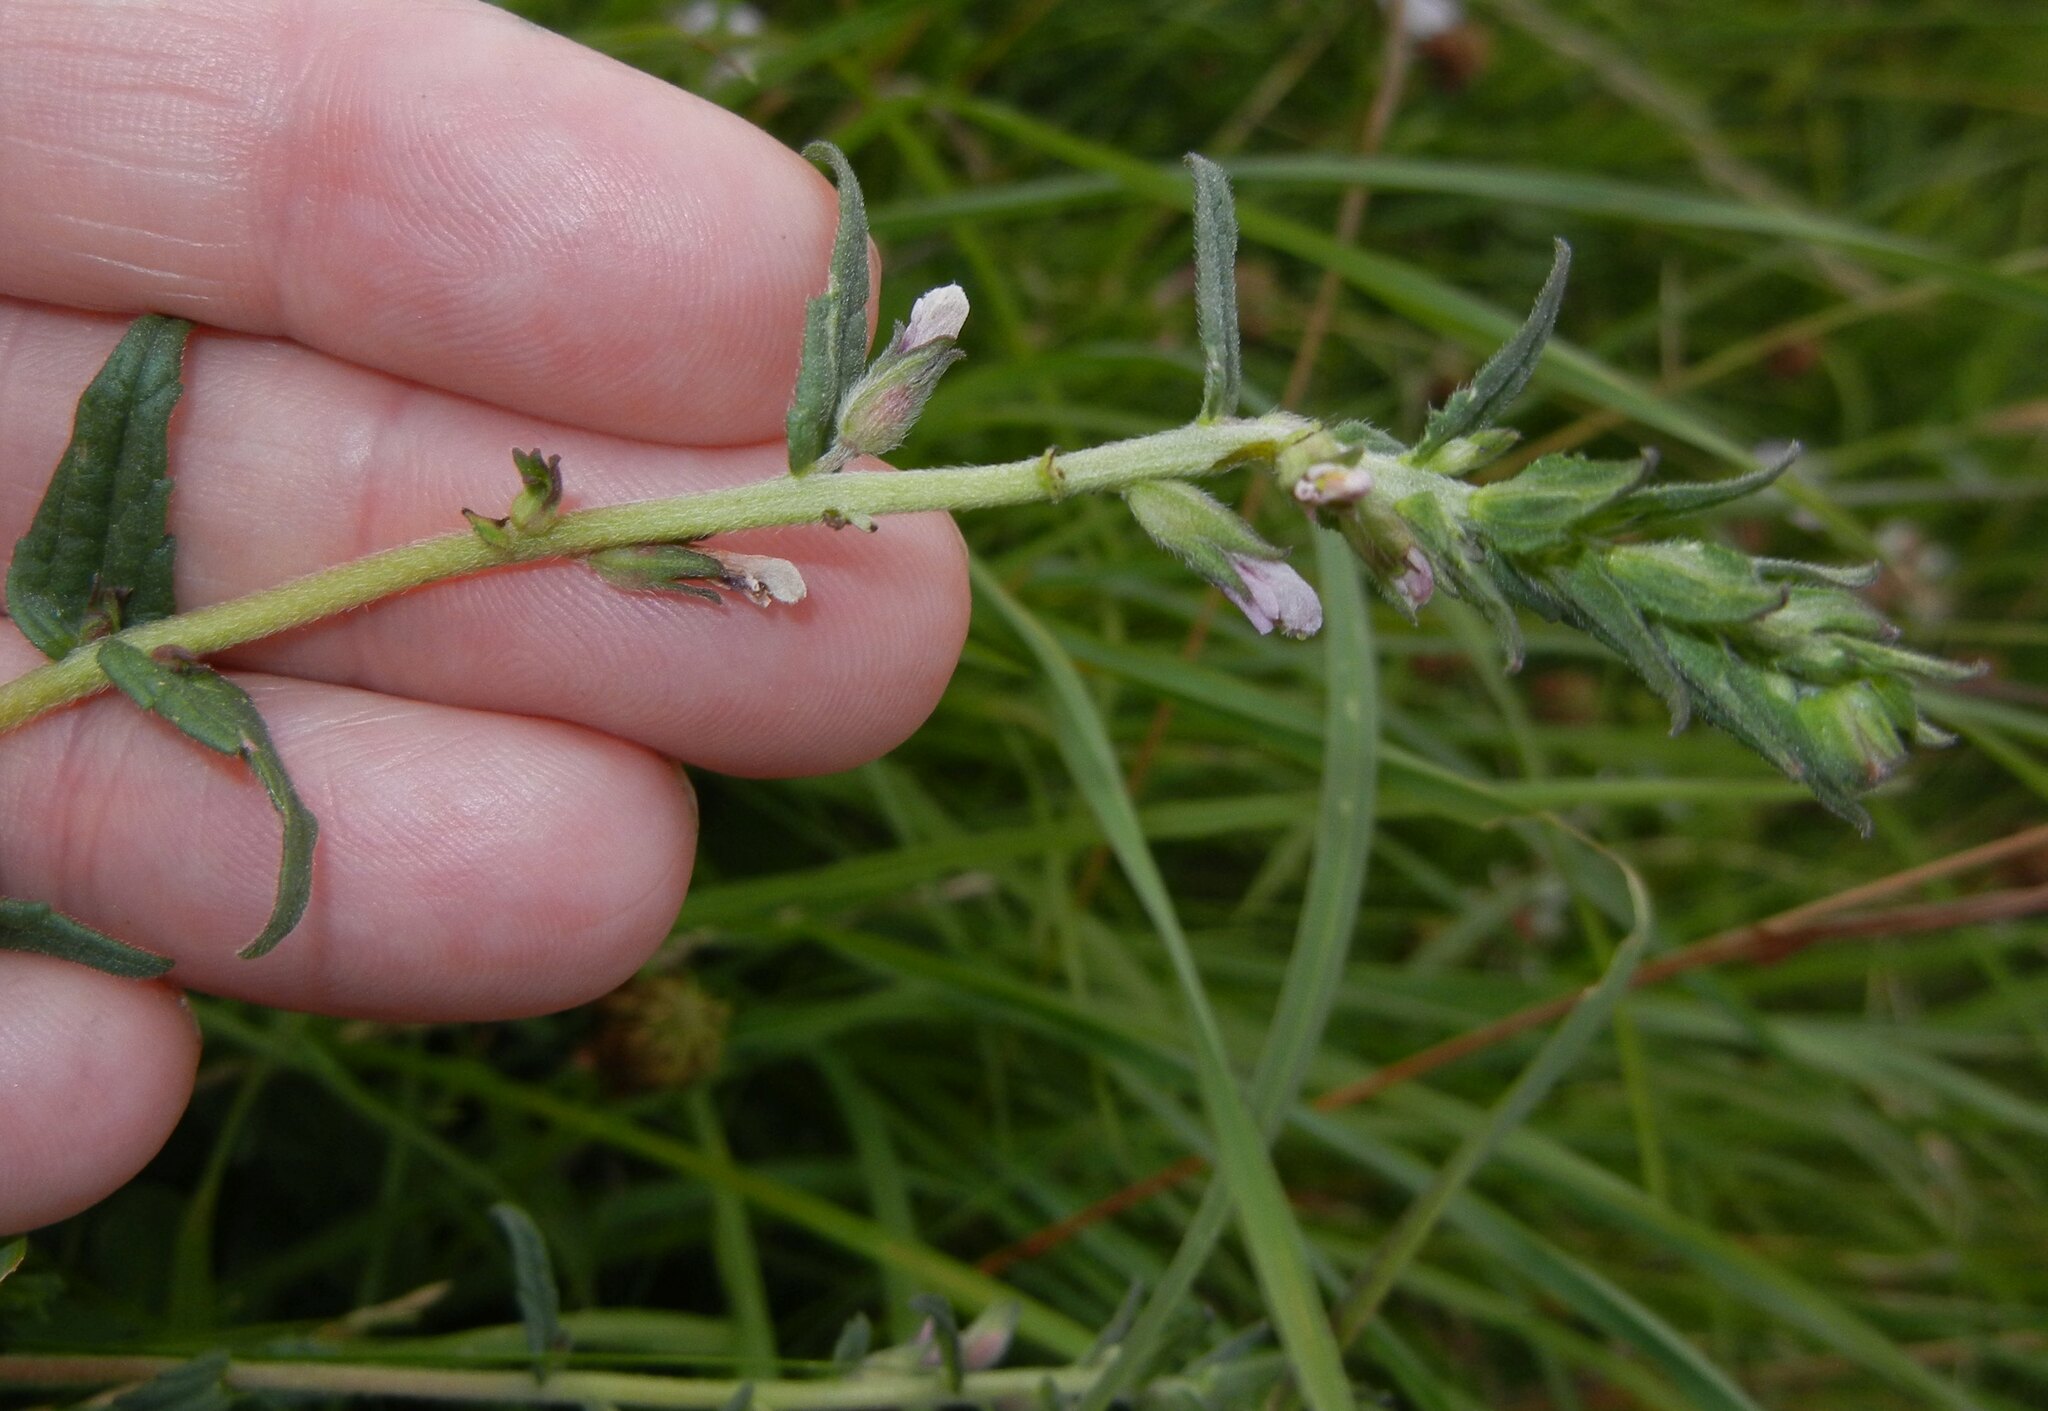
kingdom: Plantae
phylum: Tracheophyta
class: Magnoliopsida
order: Lamiales
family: Orobanchaceae
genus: Odontites
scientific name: Odontites vernus
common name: Red bartsia
